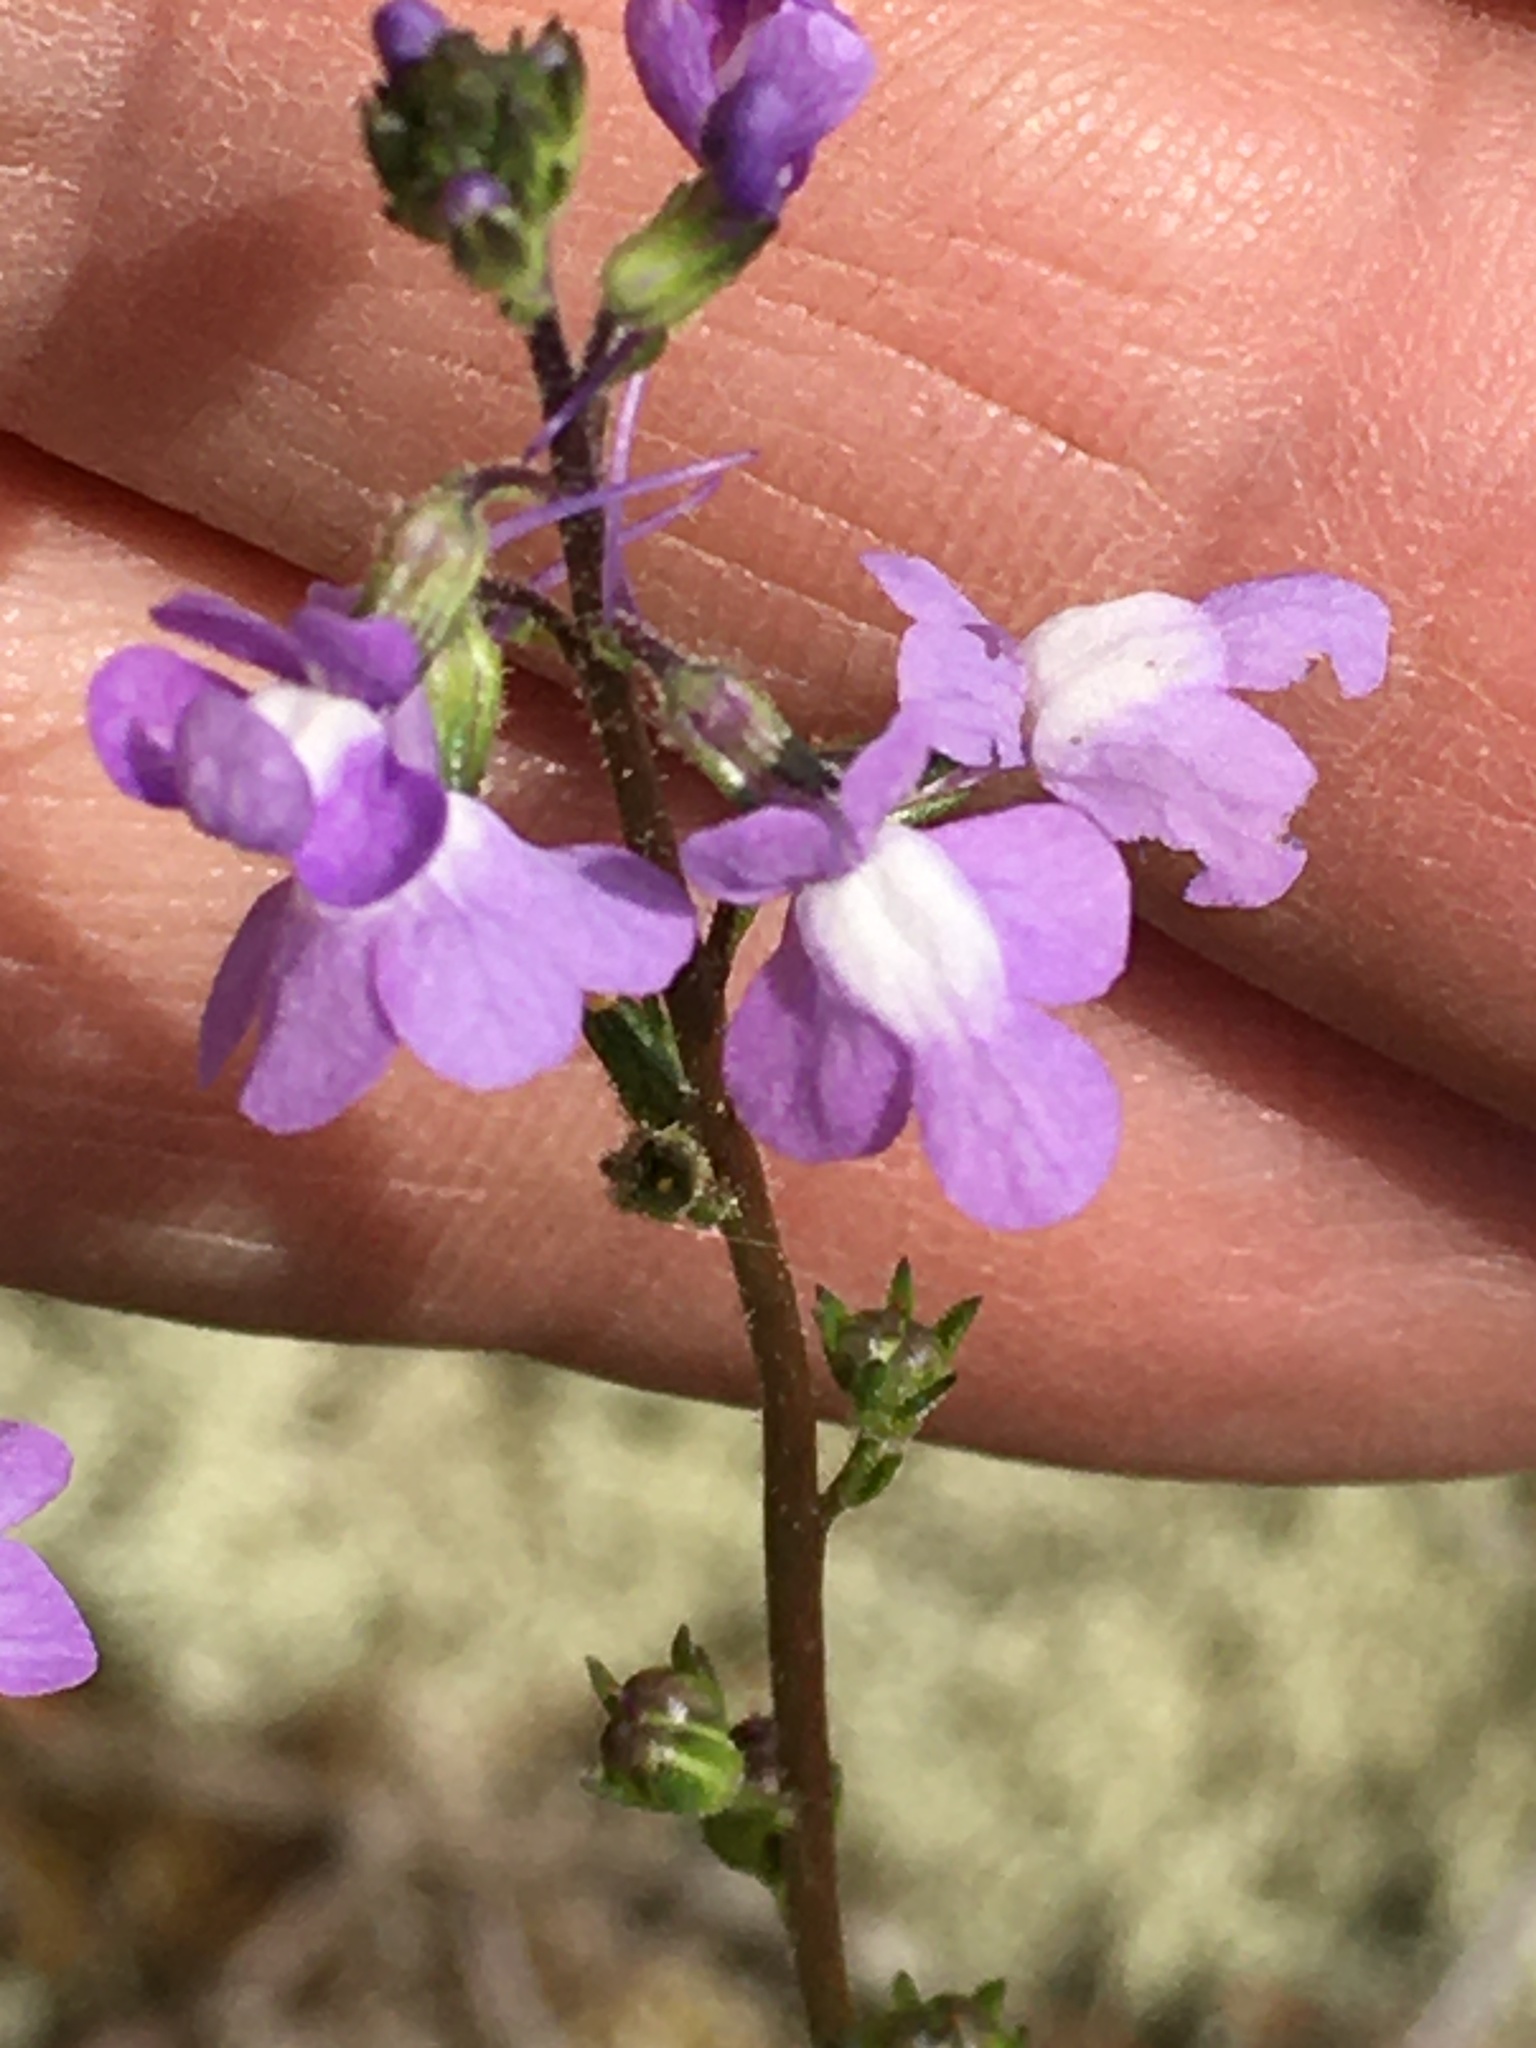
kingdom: Plantae
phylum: Tracheophyta
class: Magnoliopsida
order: Lamiales
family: Plantaginaceae
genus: Nuttallanthus
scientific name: Nuttallanthus canadensis
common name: Blue toadflax
